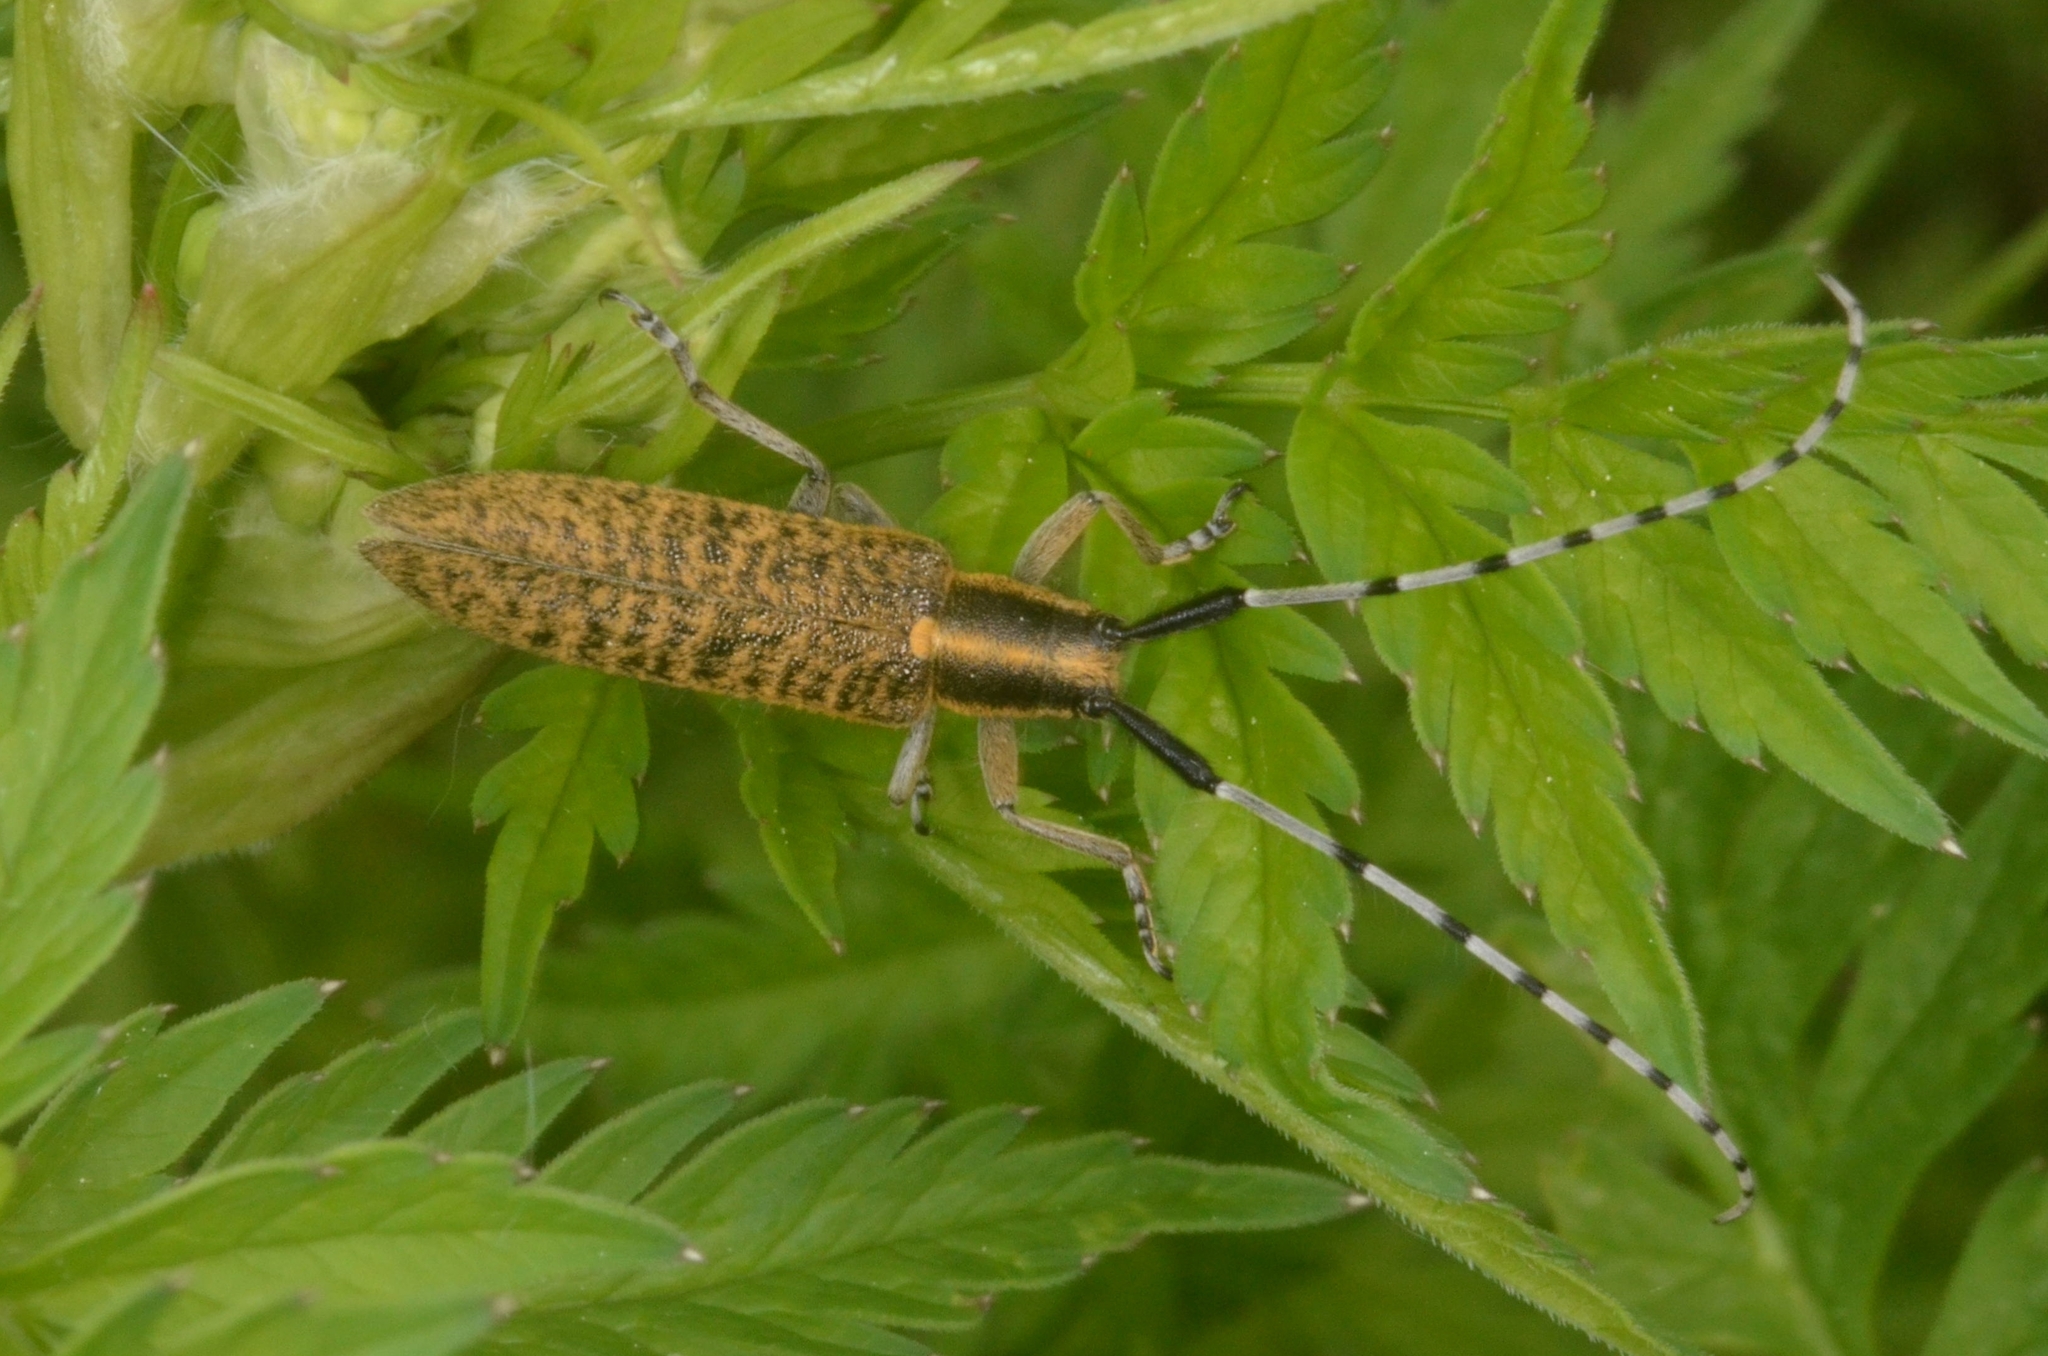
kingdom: Animalia
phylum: Arthropoda
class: Insecta
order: Coleoptera
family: Cerambycidae
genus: Agapanthia
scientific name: Agapanthia villosoviridescens
